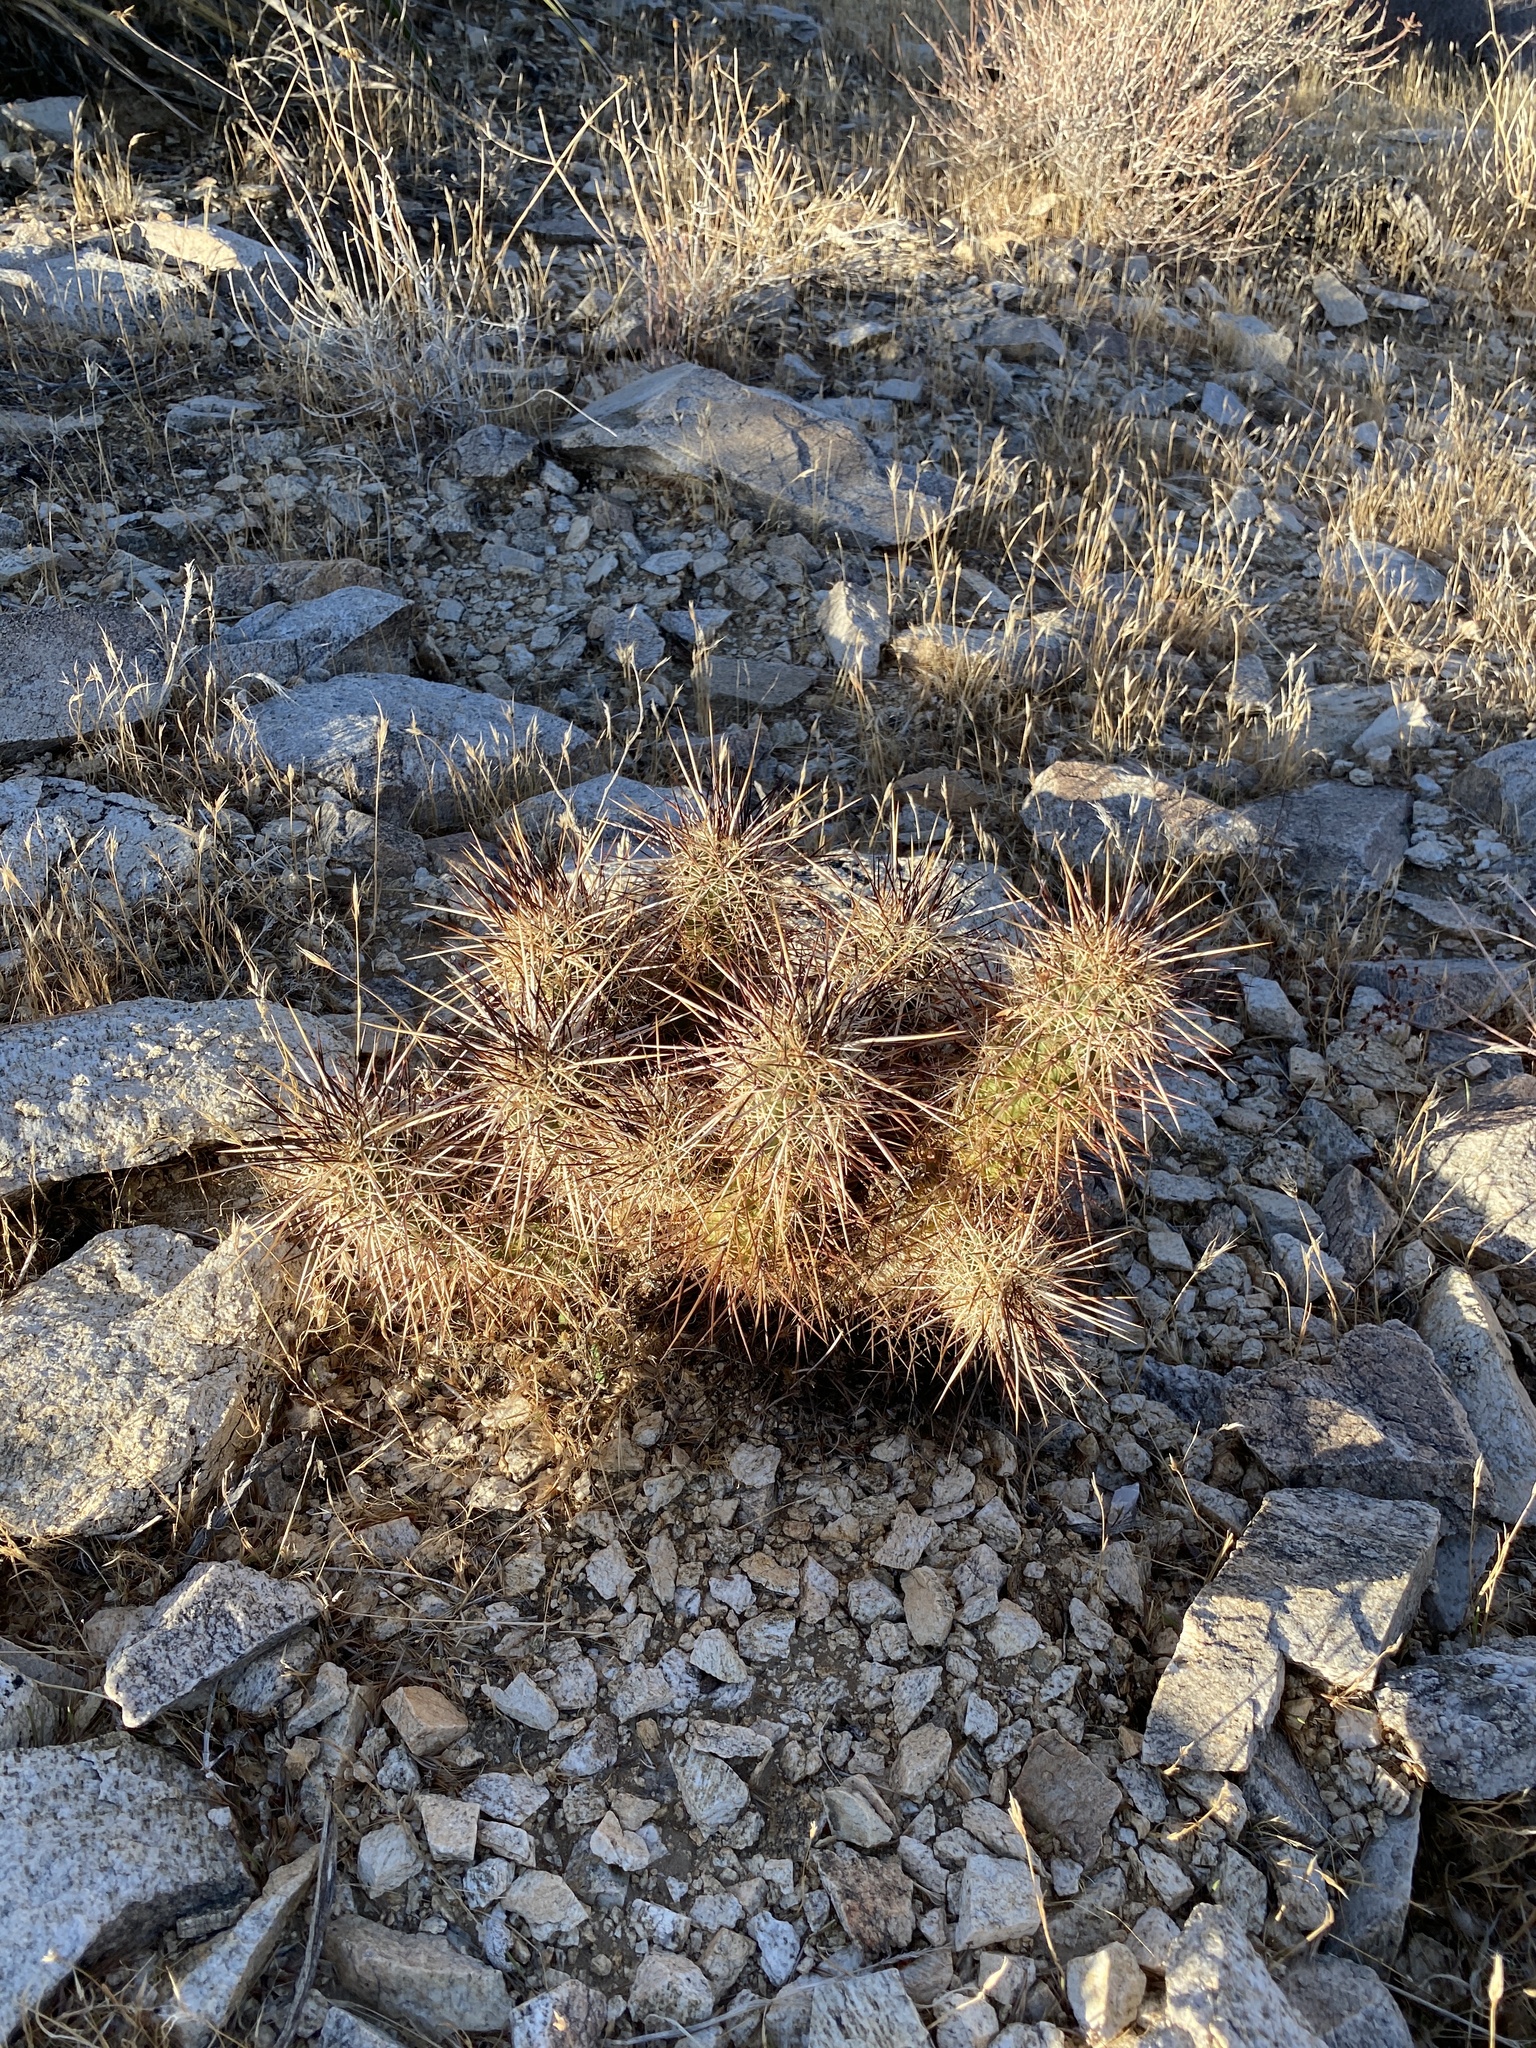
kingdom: Plantae
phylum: Tracheophyta
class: Magnoliopsida
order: Caryophyllales
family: Cactaceae
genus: Echinocereus
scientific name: Echinocereus engelmannii
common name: Engelmann's hedgehog cactus
